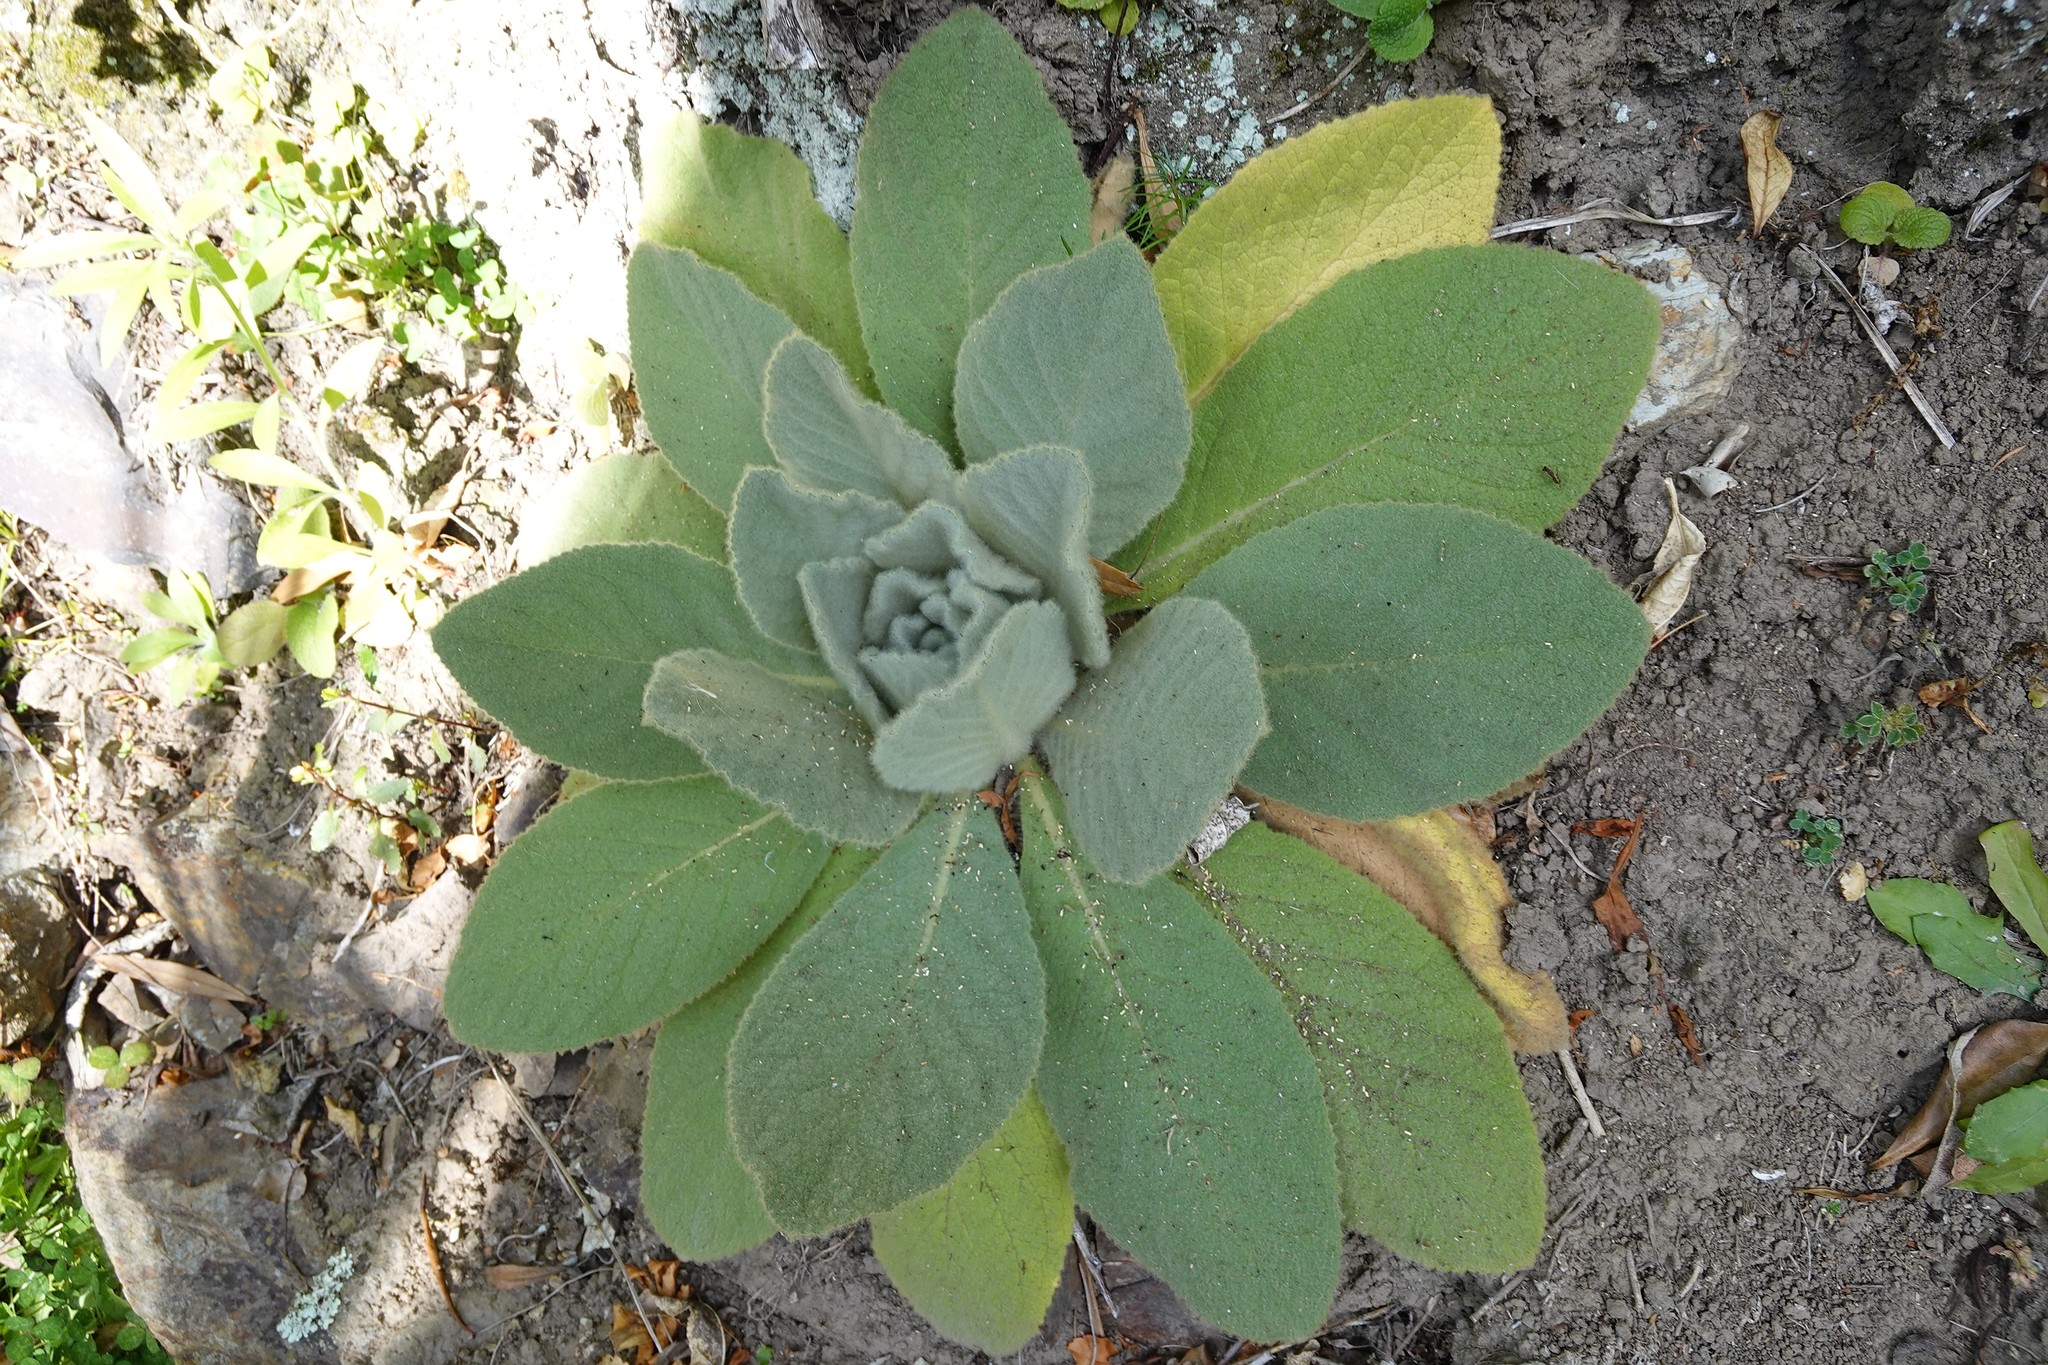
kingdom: Plantae
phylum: Tracheophyta
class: Magnoliopsida
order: Lamiales
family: Scrophulariaceae
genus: Verbascum
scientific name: Verbascum thapsus
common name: Common mullein
